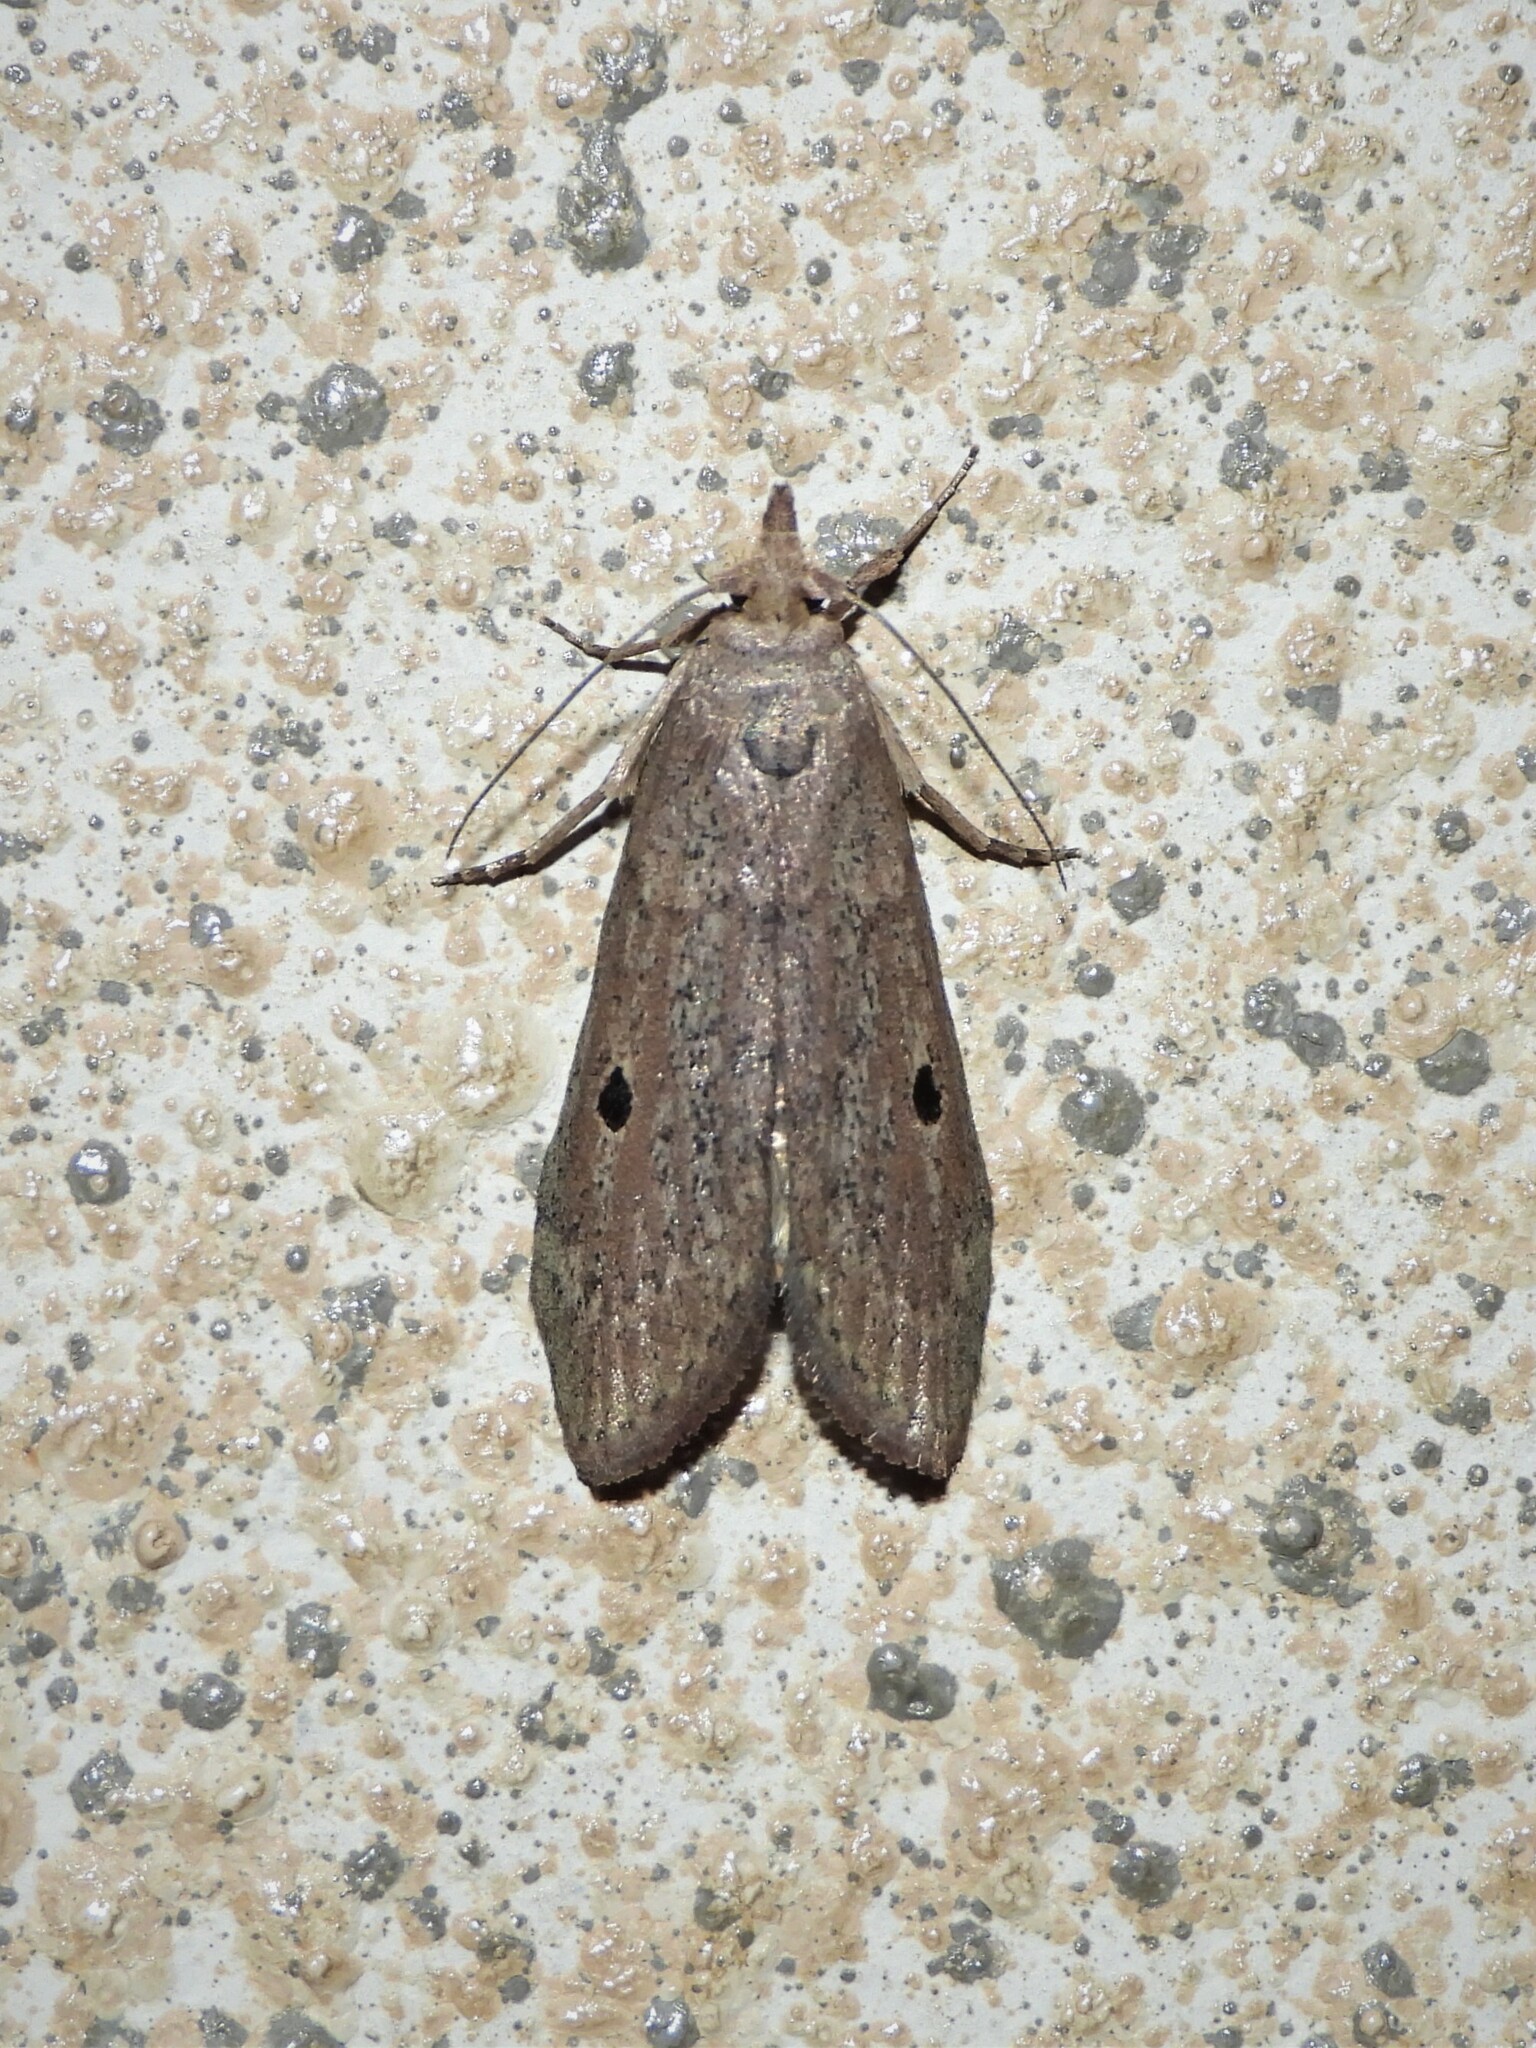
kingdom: Animalia
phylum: Arthropoda
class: Insecta
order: Lepidoptera
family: Pyralidae
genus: Aphomia
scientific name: Aphomia sociella
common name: Bee moth
